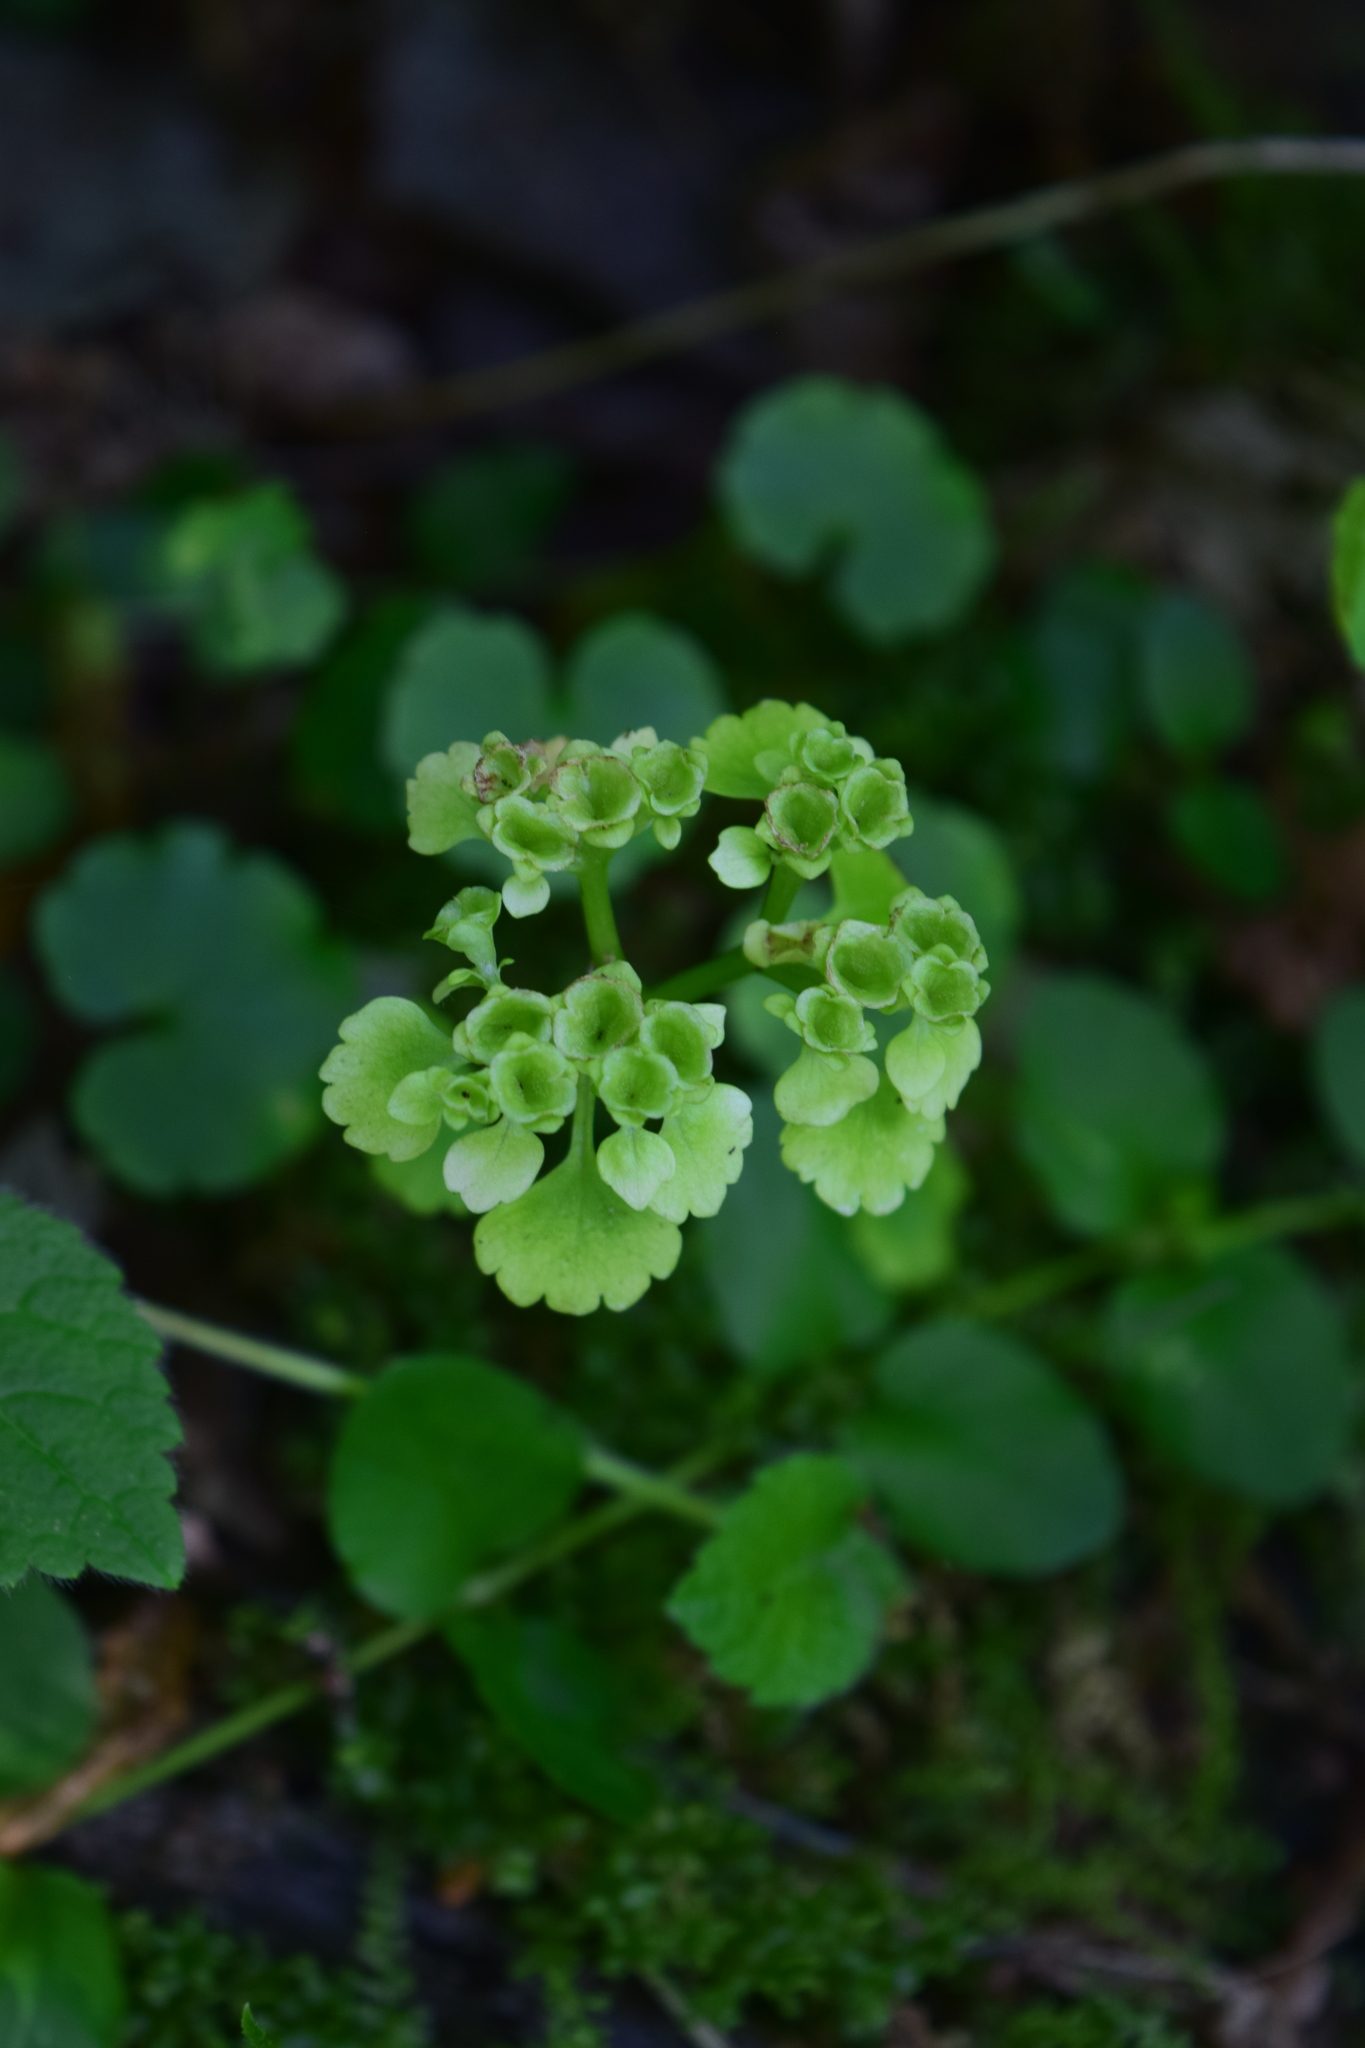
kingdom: Plantae
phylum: Tracheophyta
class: Magnoliopsida
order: Saxifragales
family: Saxifragaceae
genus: Chrysosplenium
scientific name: Chrysosplenium alternifolium
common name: Alternate-leaved golden-saxifrage
